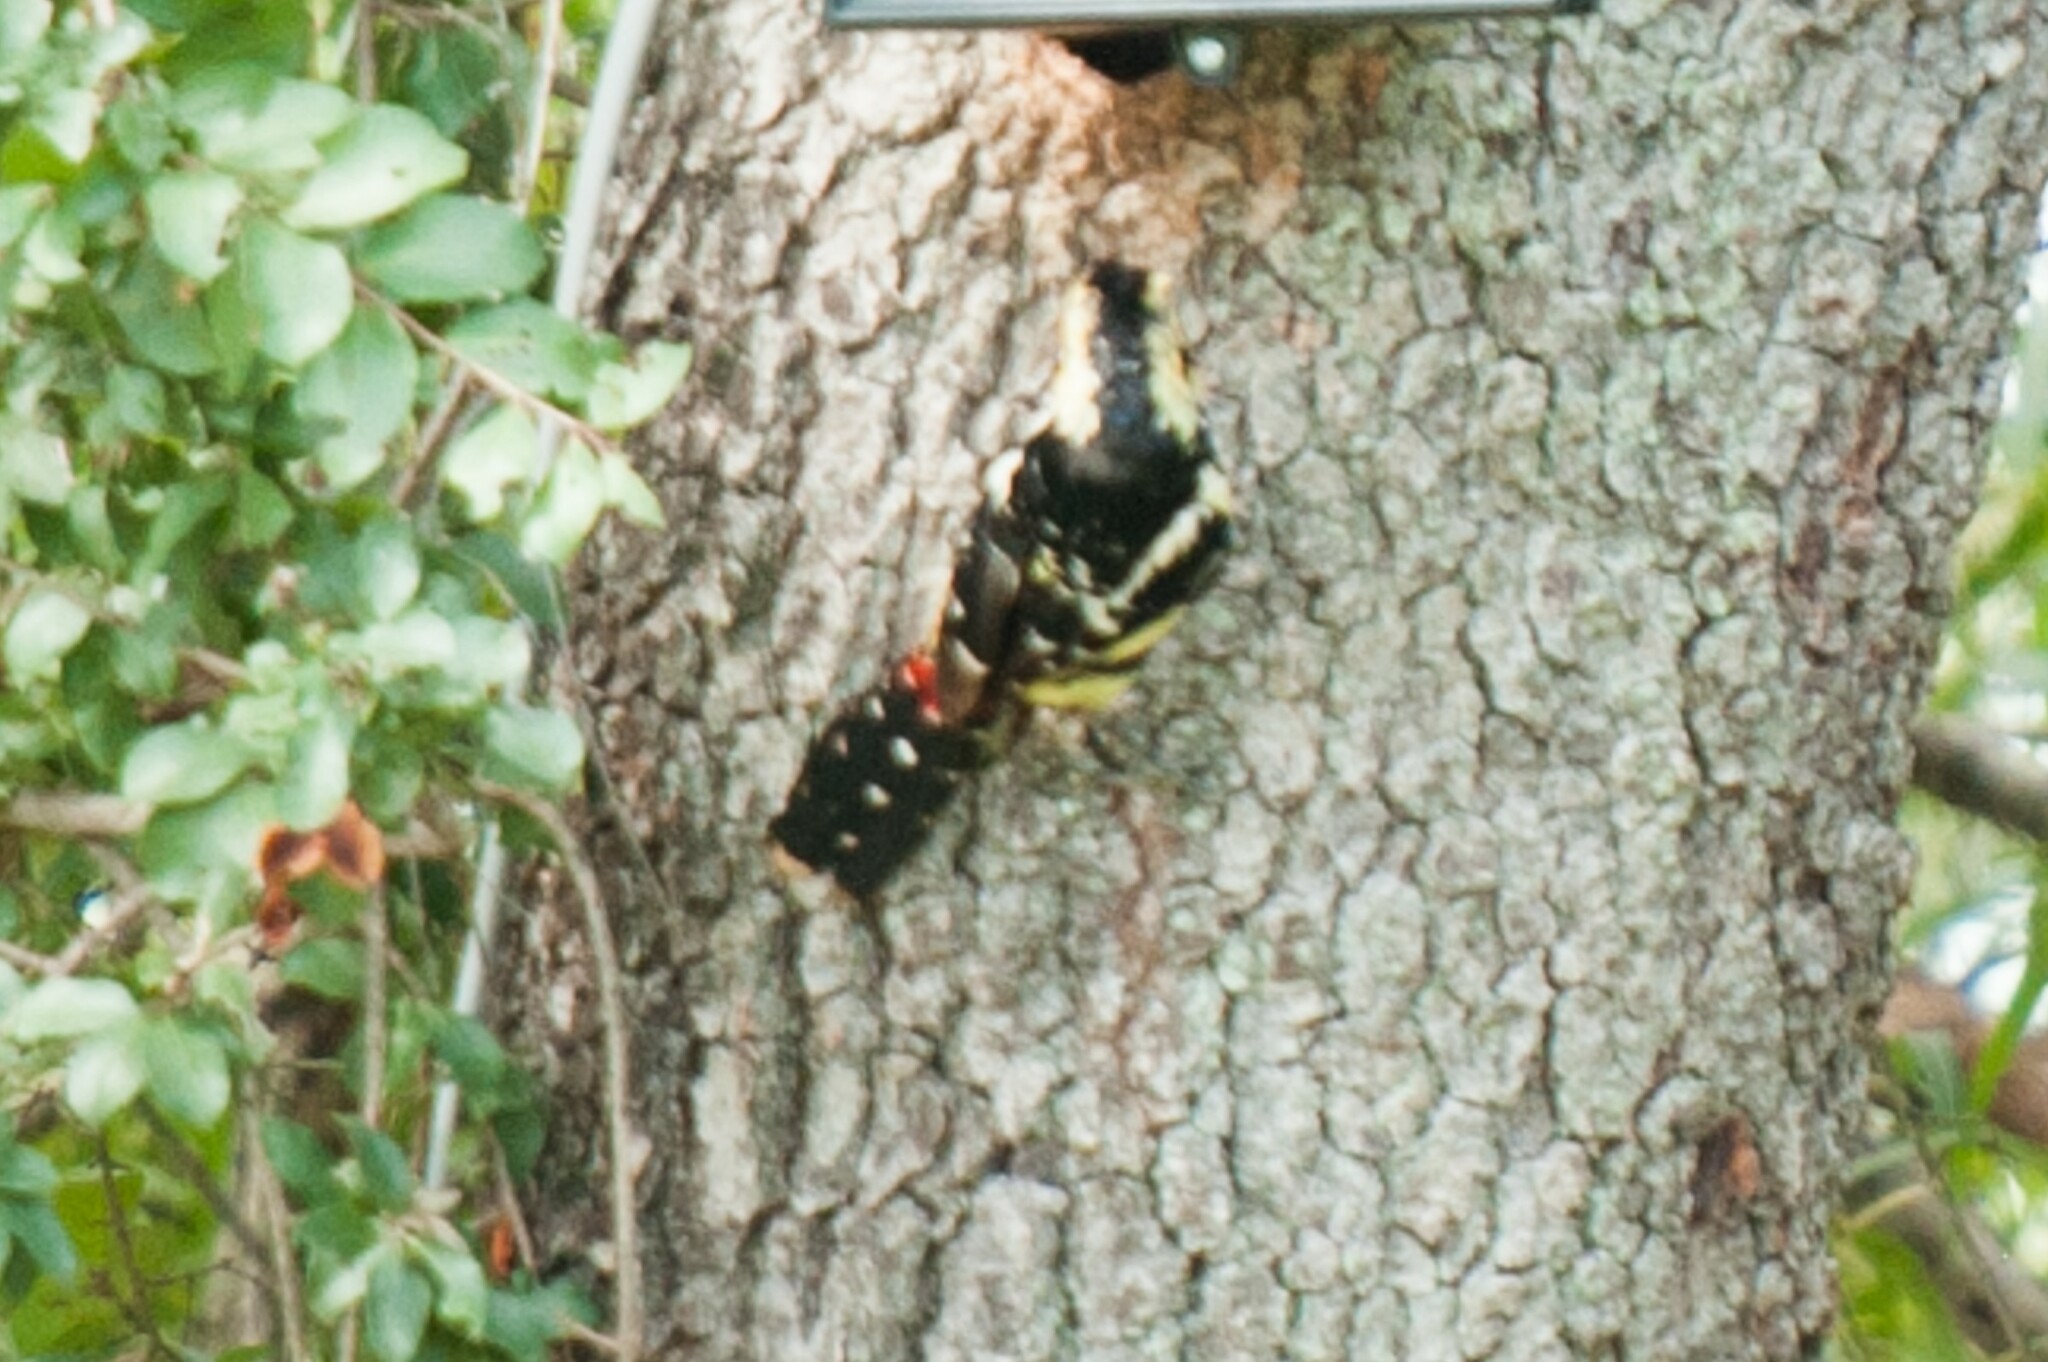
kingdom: Animalia
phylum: Chordata
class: Aves
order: Piciformes
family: Lybiidae
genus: Trachyphonus
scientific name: Trachyphonus vaillantii
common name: Crested barbet
